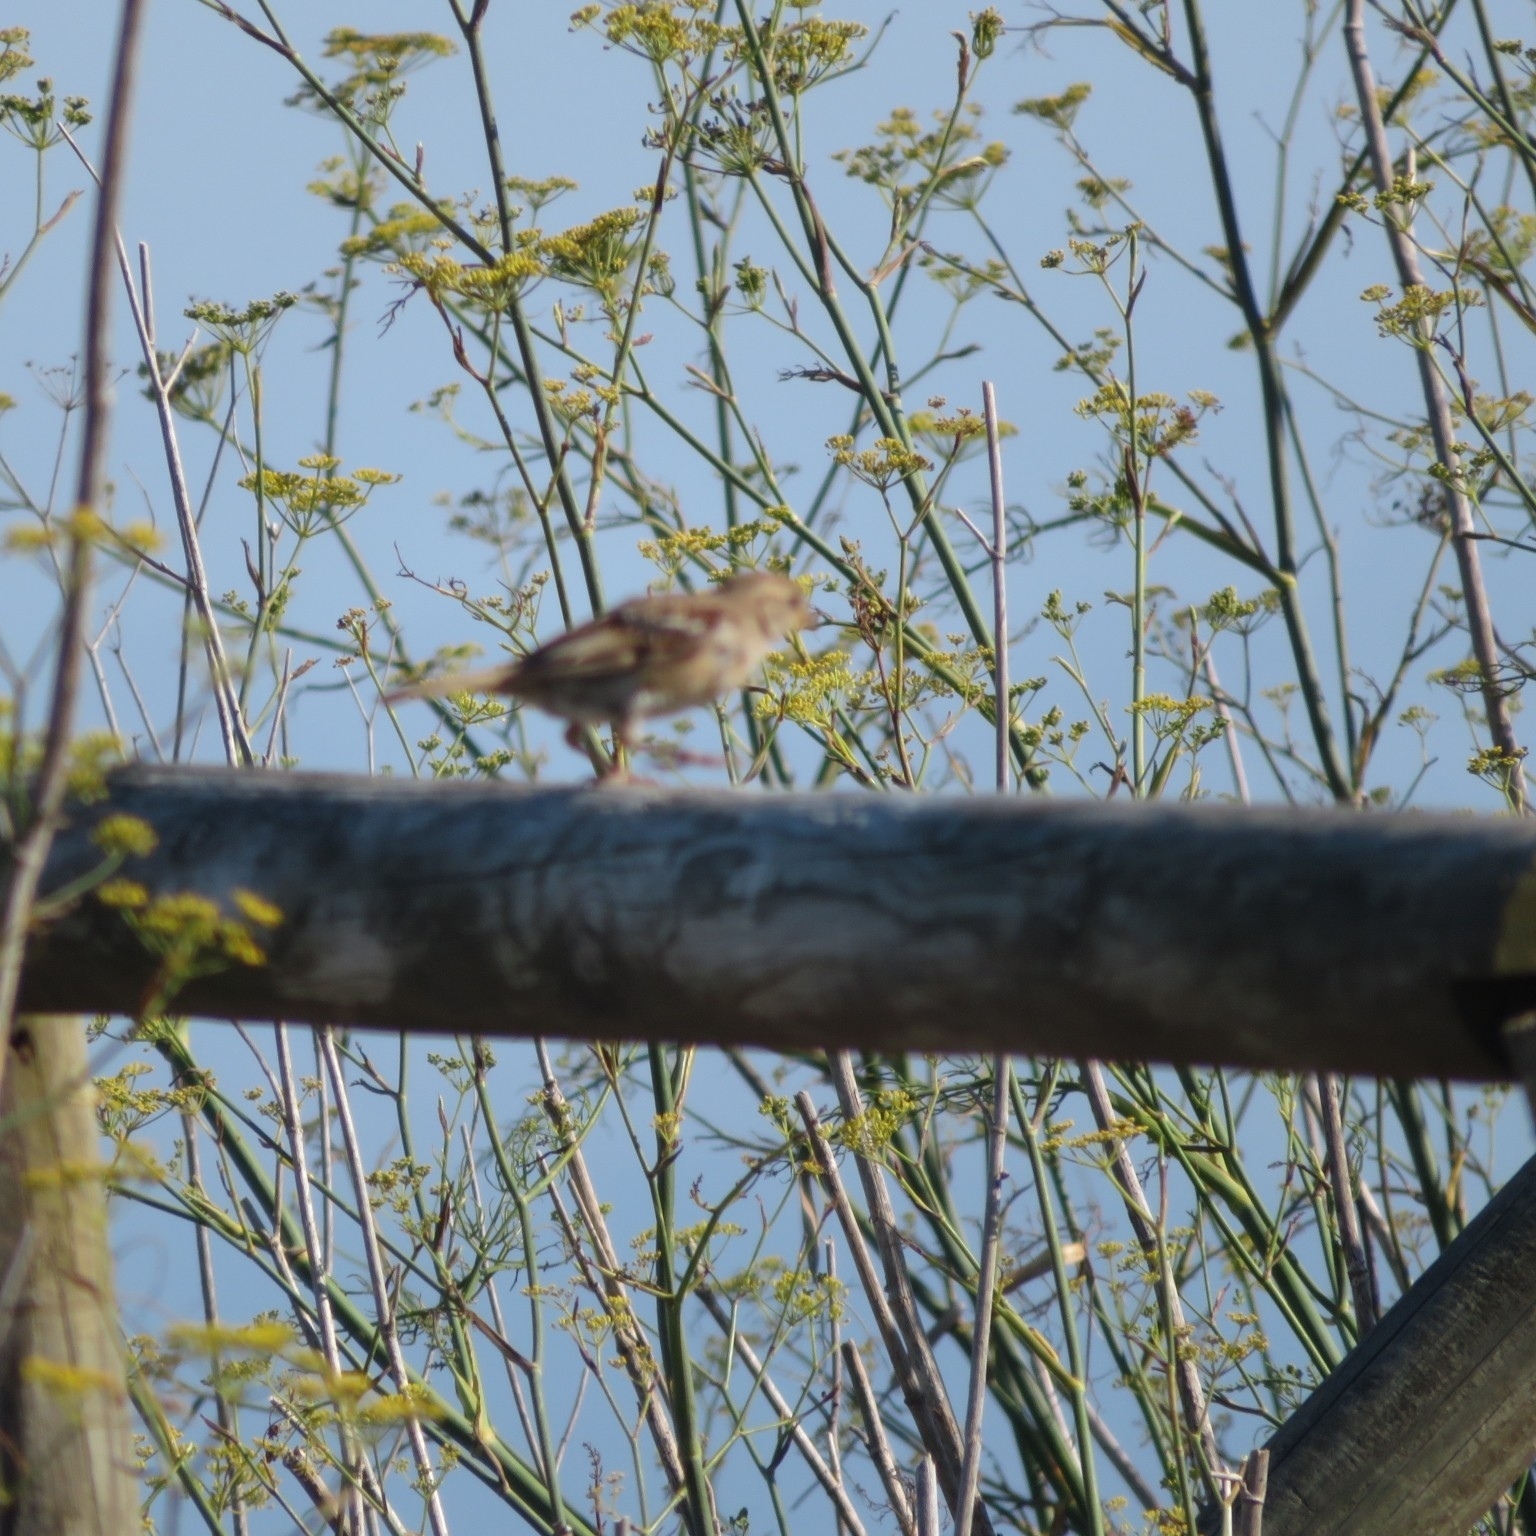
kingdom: Animalia
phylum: Chordata
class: Aves
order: Passeriformes
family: Passeridae
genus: Passer
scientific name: Passer domesticus
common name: House sparrow
